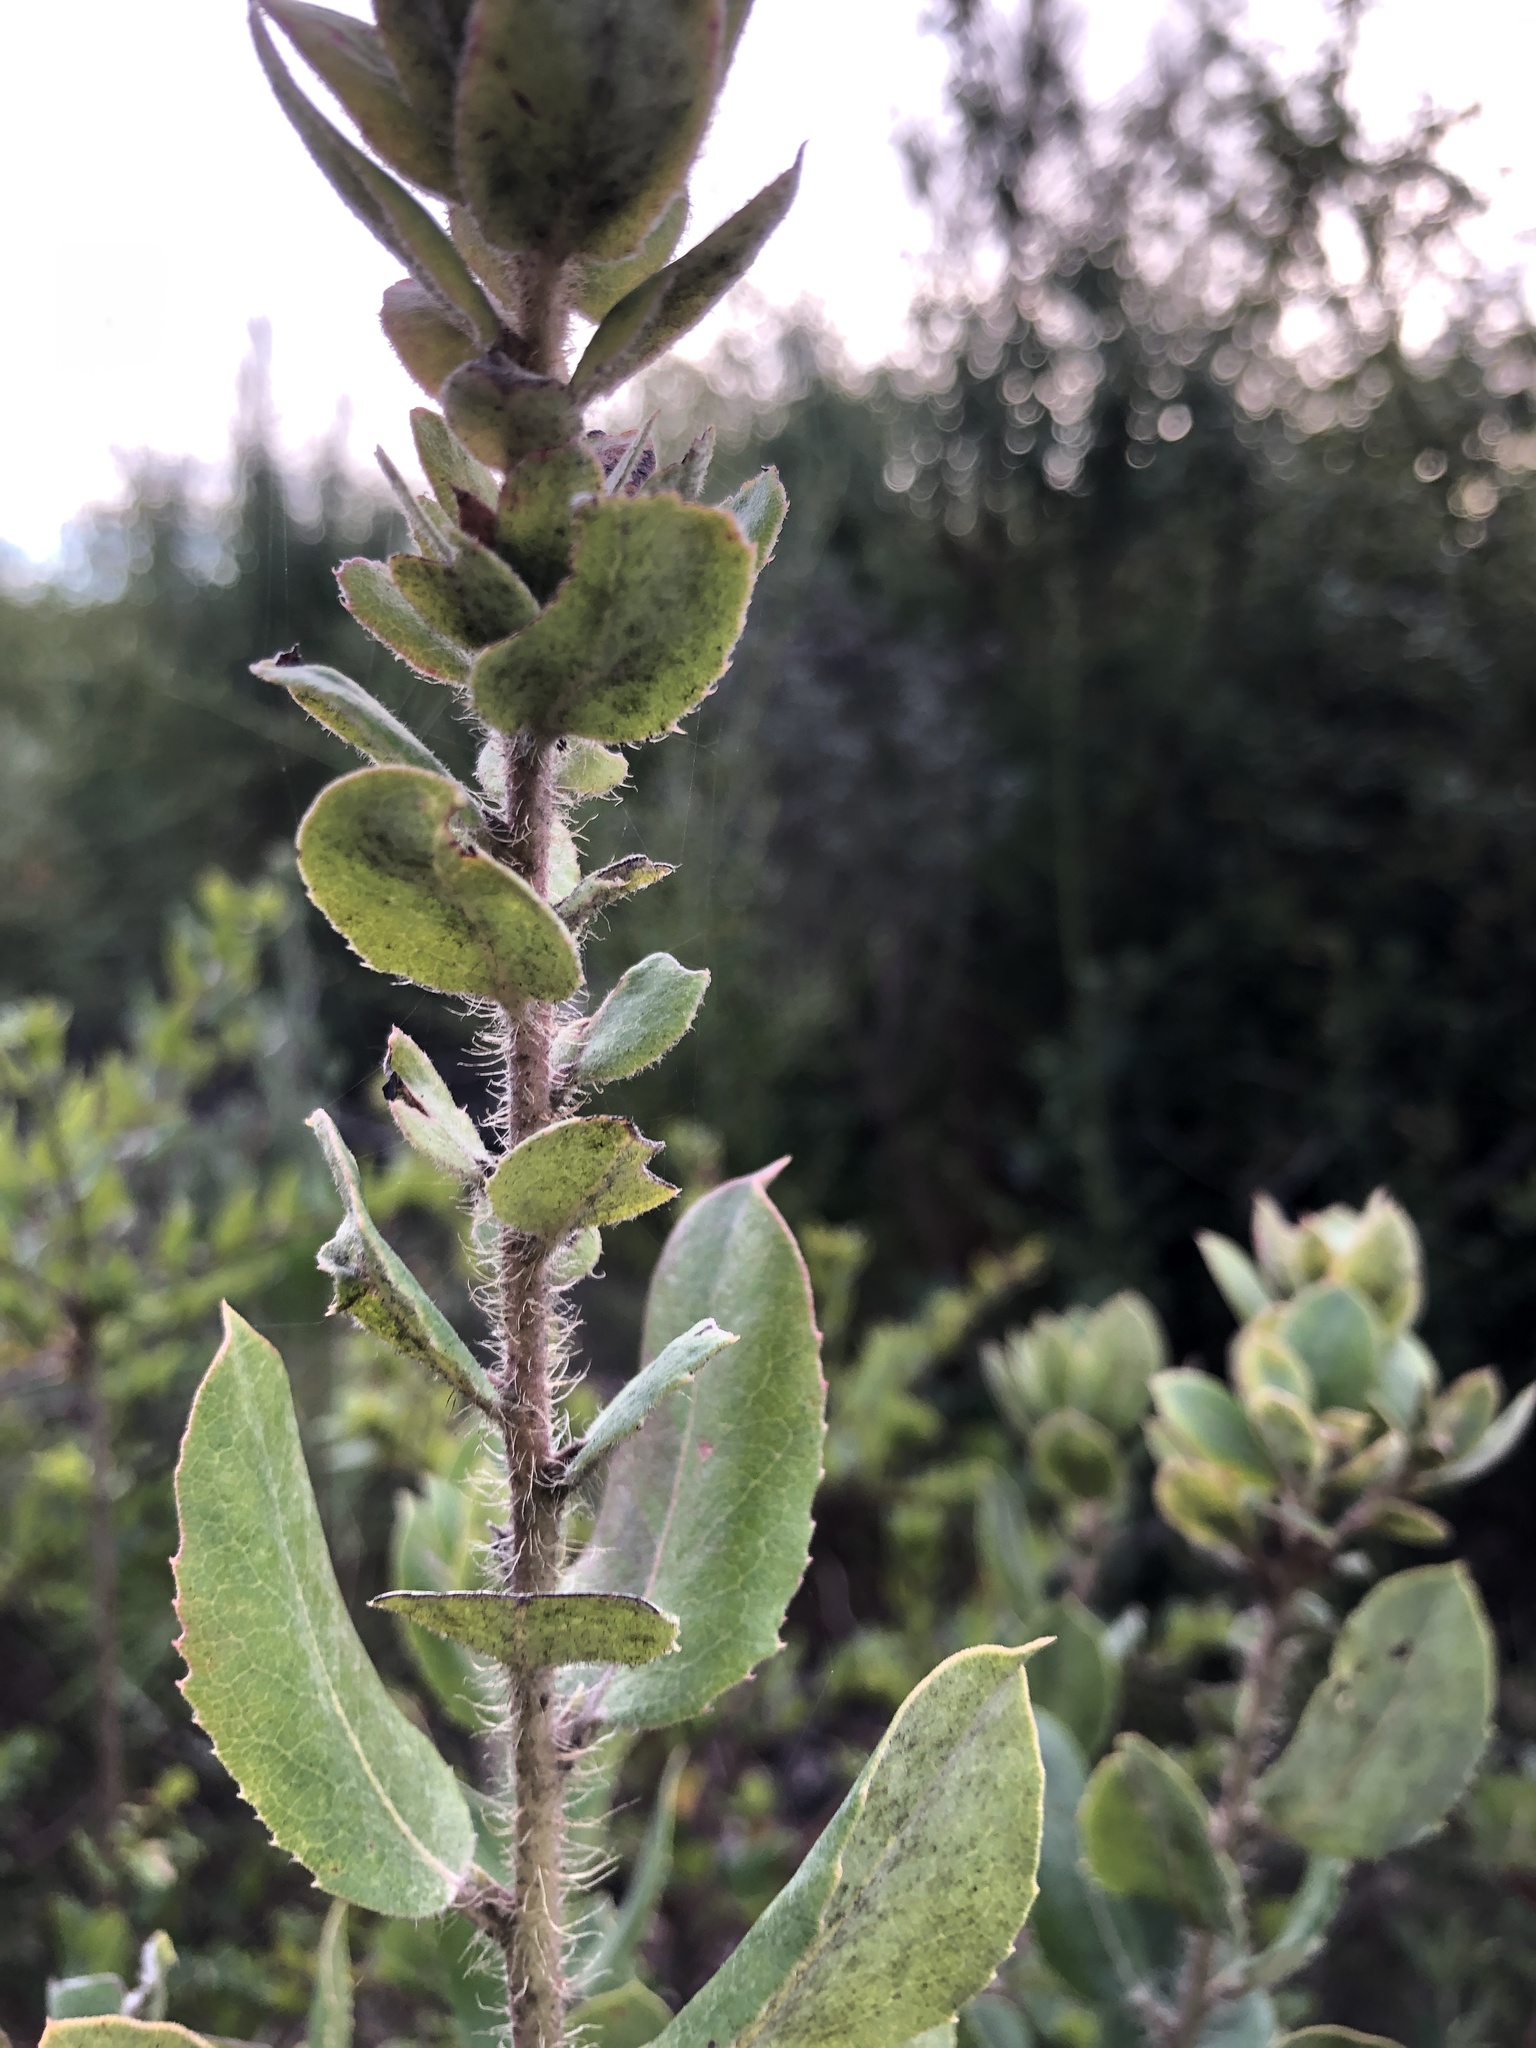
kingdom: Plantae
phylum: Tracheophyta
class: Magnoliopsida
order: Ericales
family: Ericaceae
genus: Arctostaphylos
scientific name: Arctostaphylos crustacea
